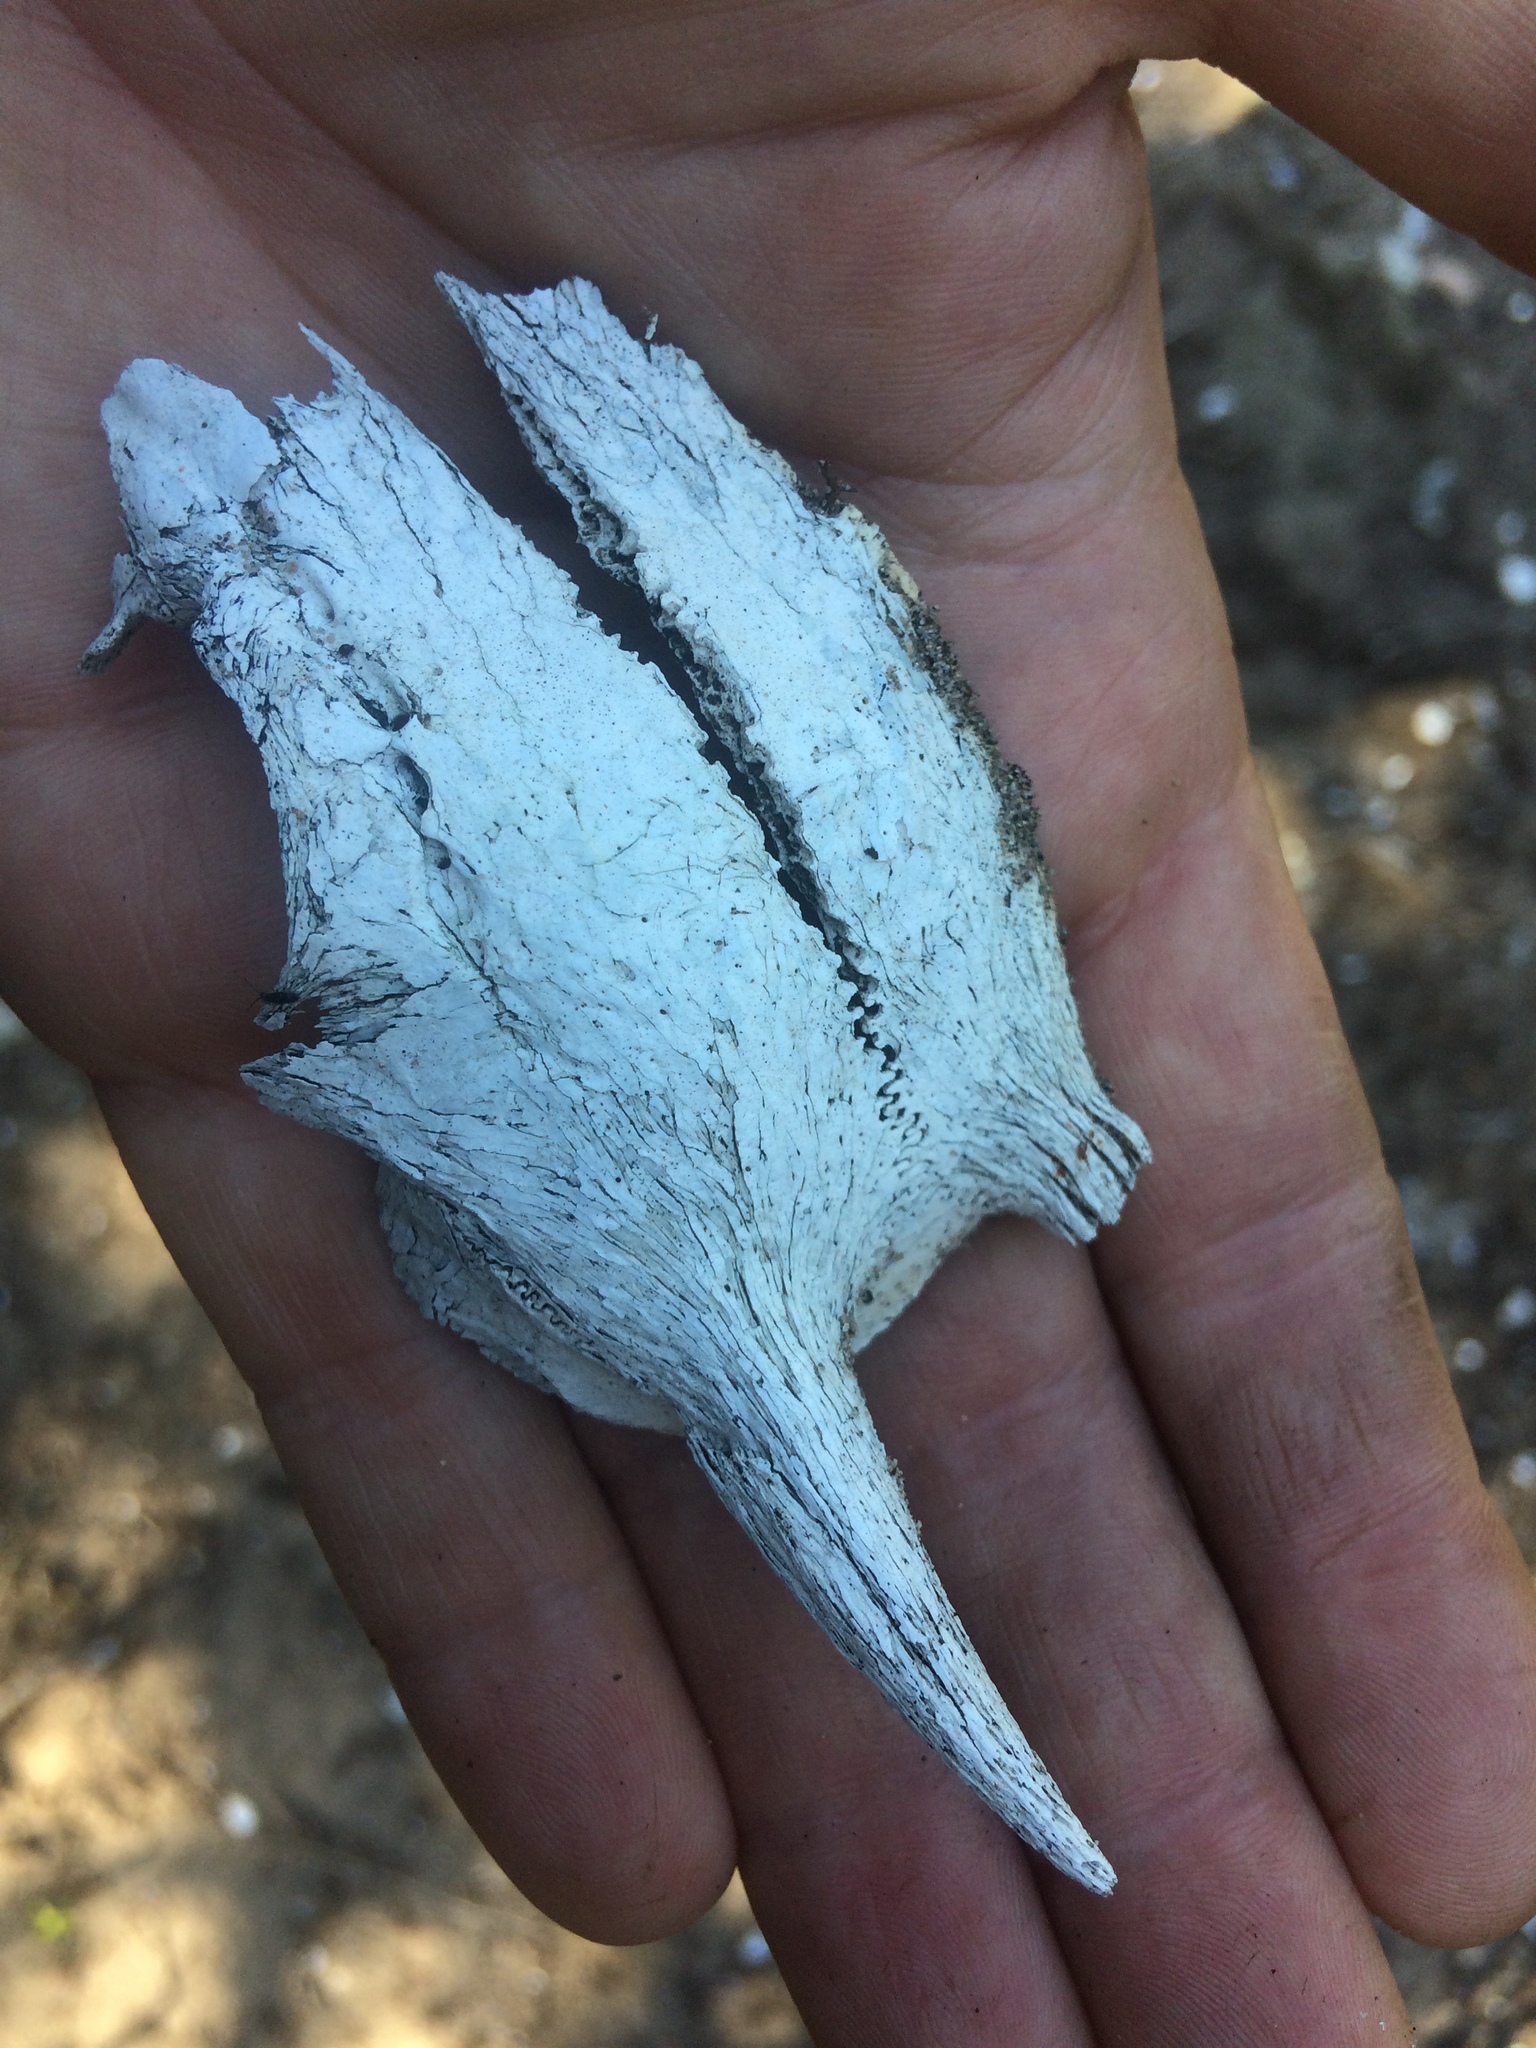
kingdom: Animalia
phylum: Chordata
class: Mammalia
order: Artiodactyla
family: Bovidae
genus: Philantomba
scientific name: Philantomba monticola
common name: Blue duiker
